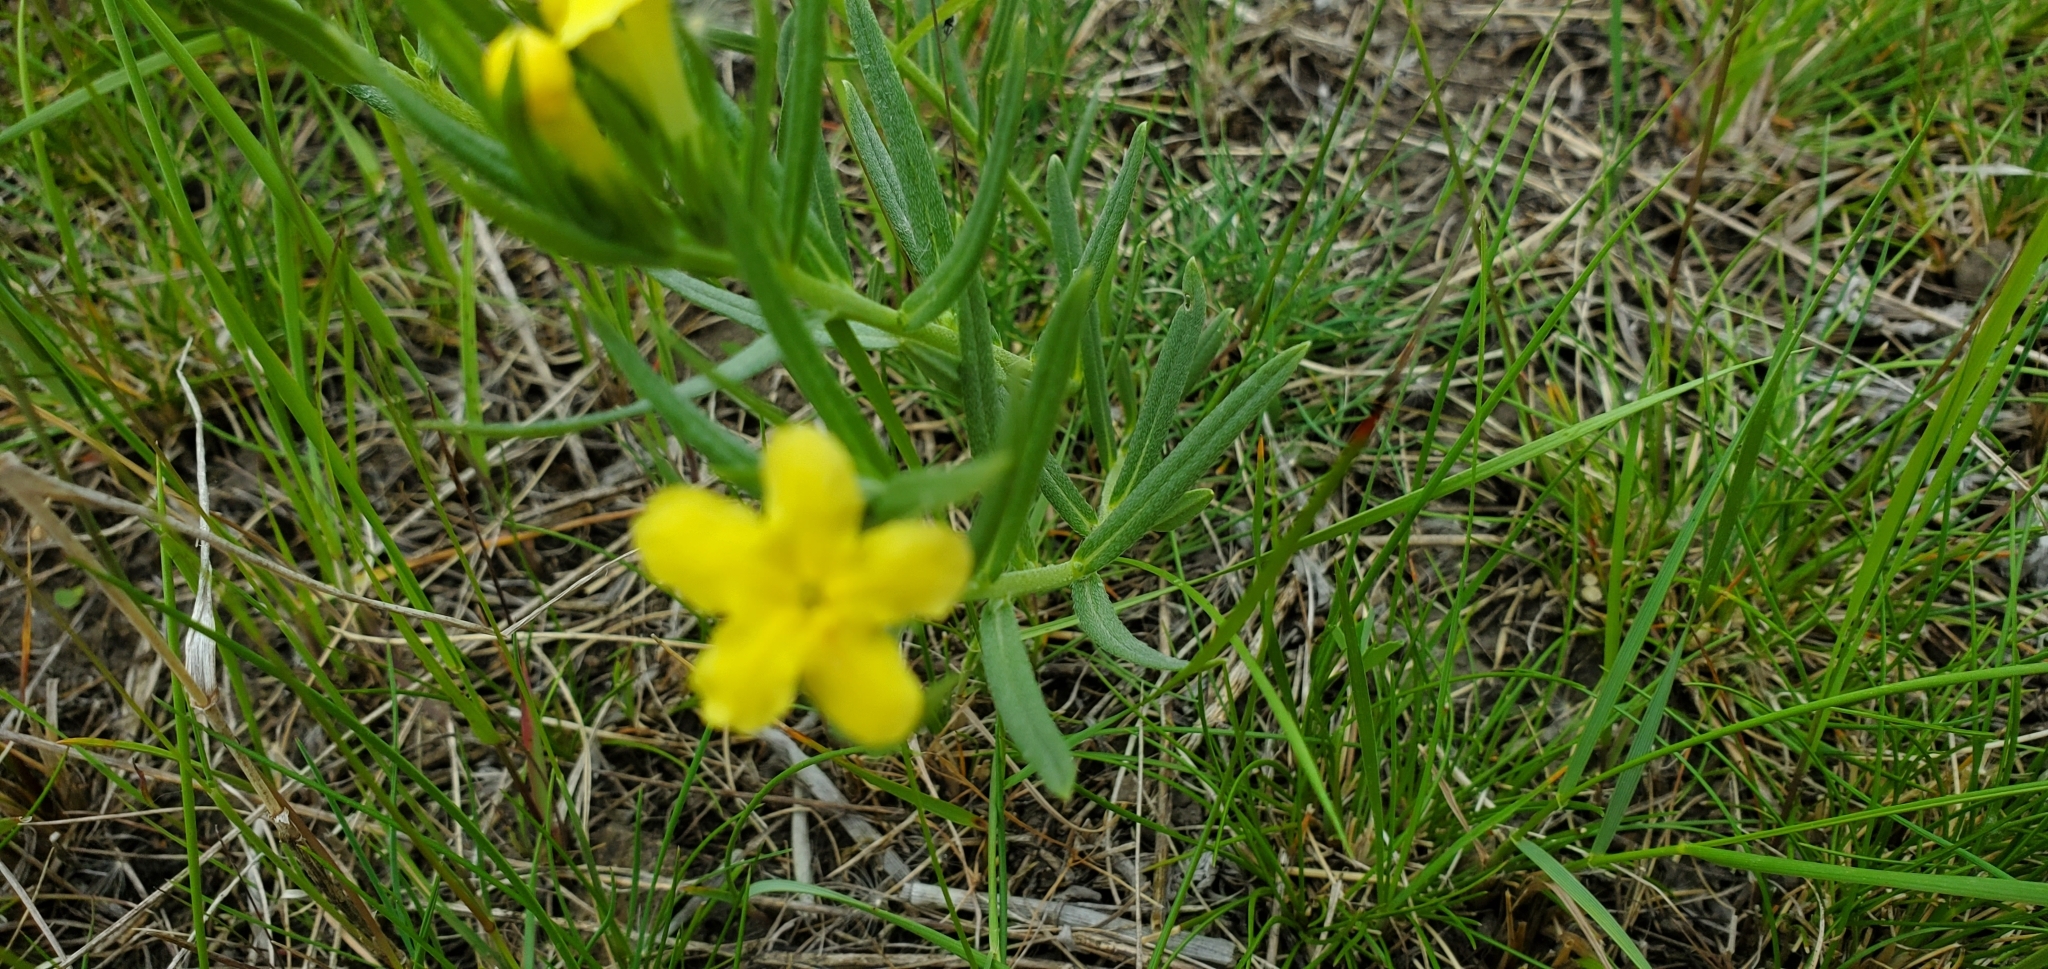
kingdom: Plantae
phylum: Tracheophyta
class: Magnoliopsida
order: Boraginales
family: Boraginaceae
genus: Lithospermum
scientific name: Lithospermum incisum
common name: Fringed gromwell
